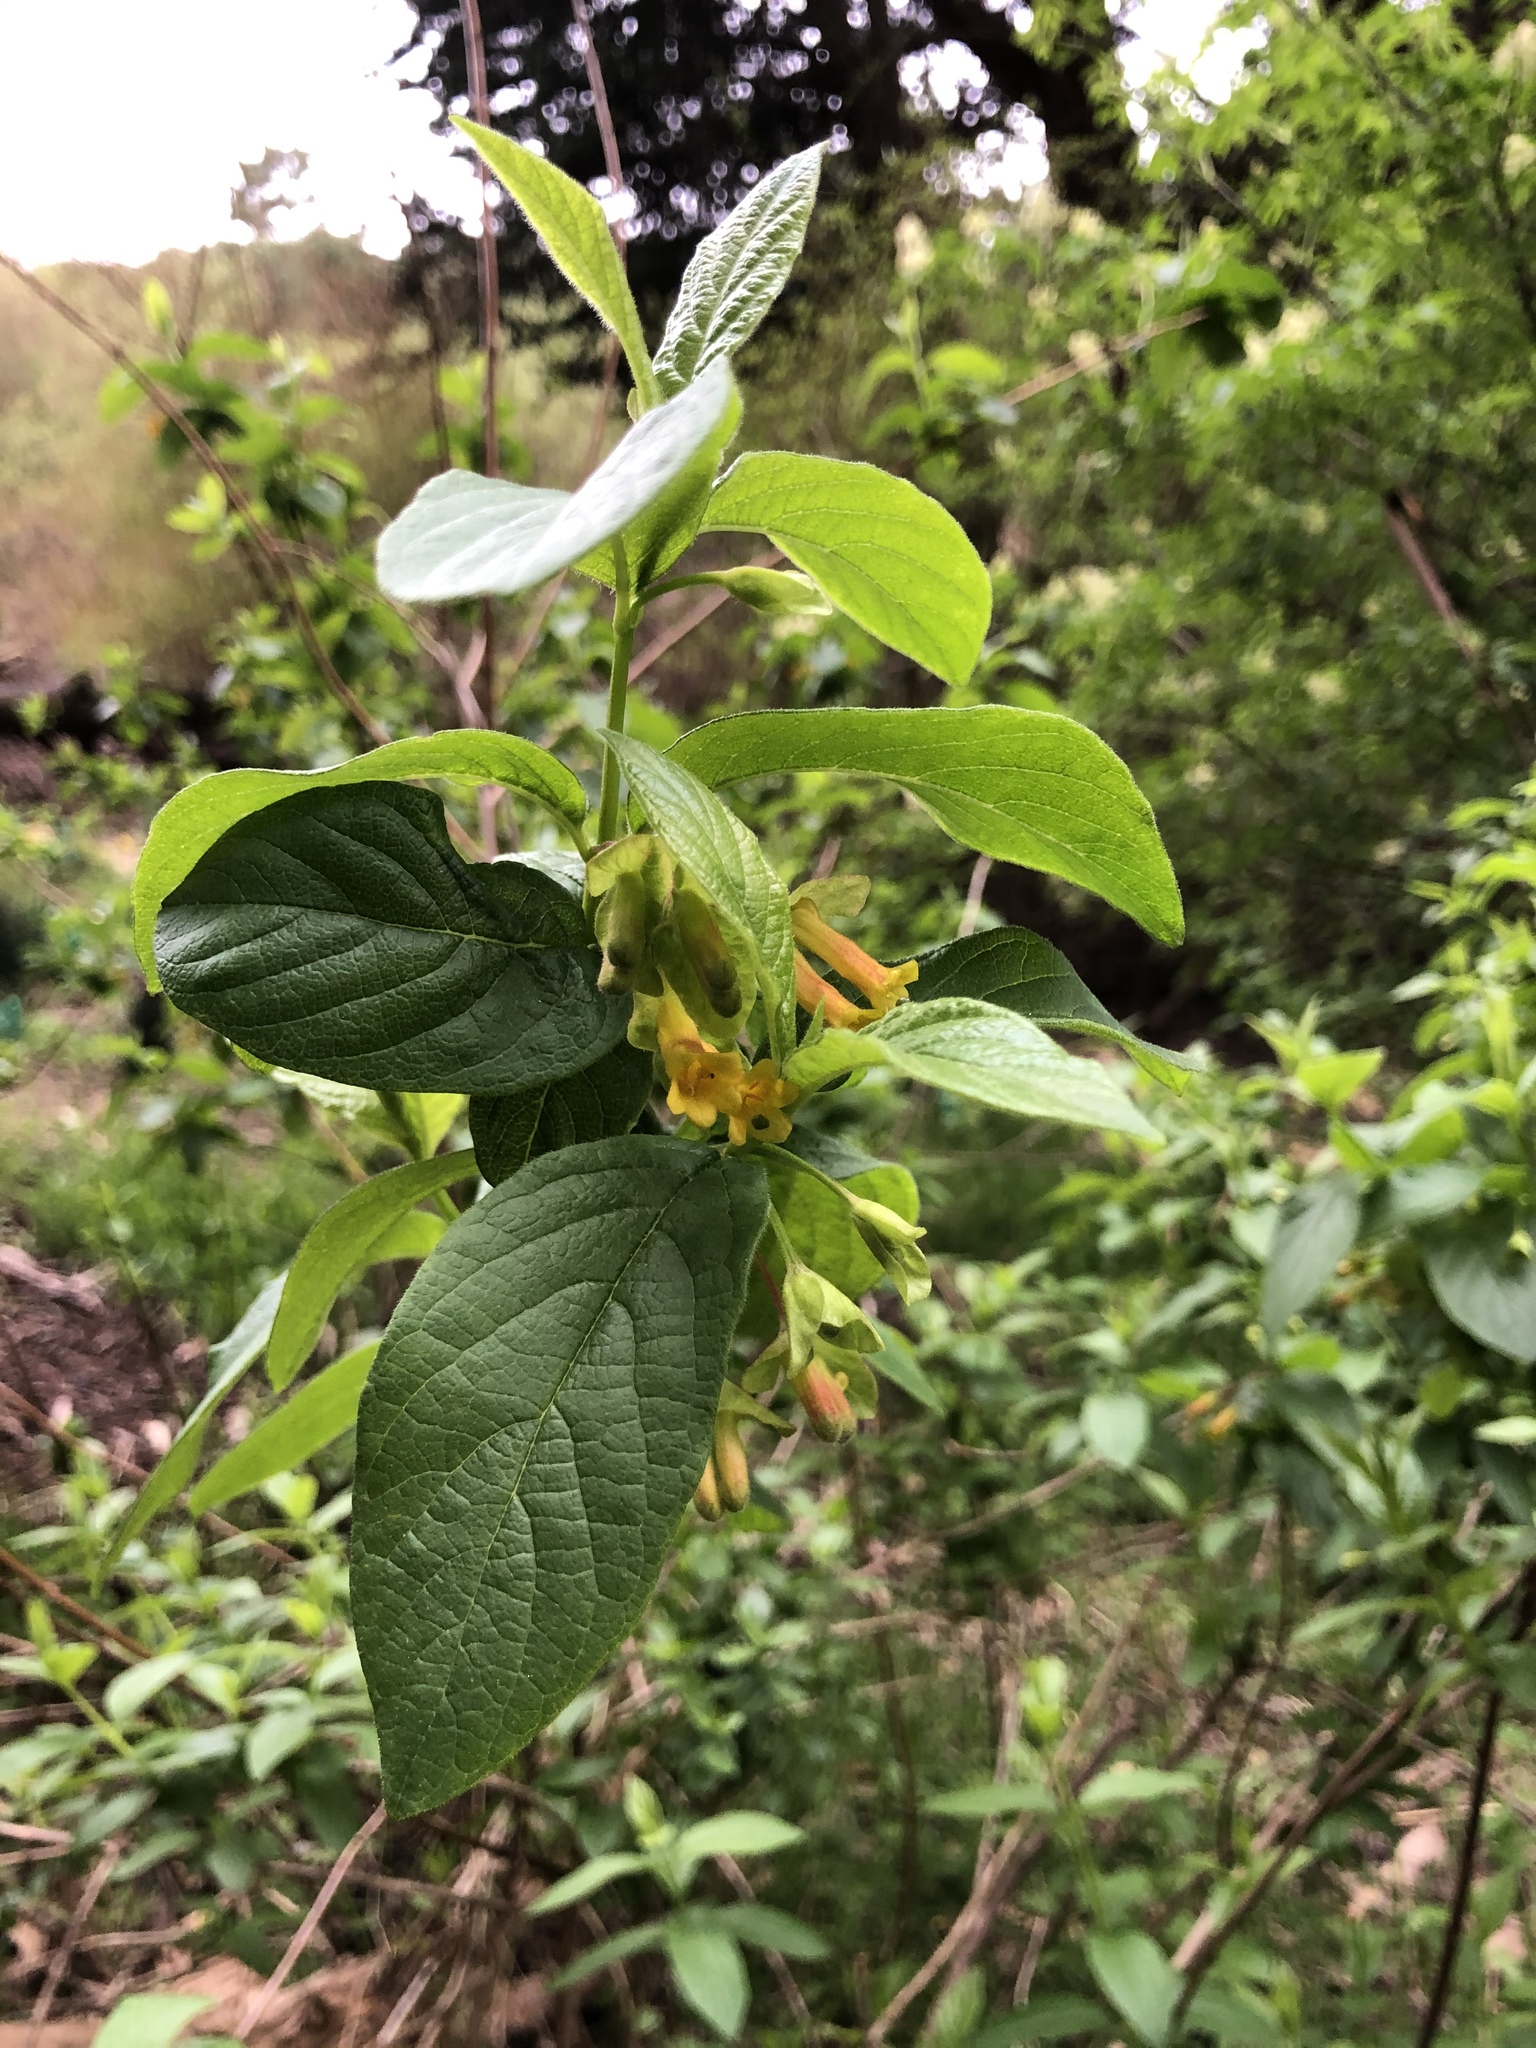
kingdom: Plantae
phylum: Tracheophyta
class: Magnoliopsida
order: Dipsacales
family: Caprifoliaceae
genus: Lonicera
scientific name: Lonicera involucrata
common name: Californian honeysuckle
